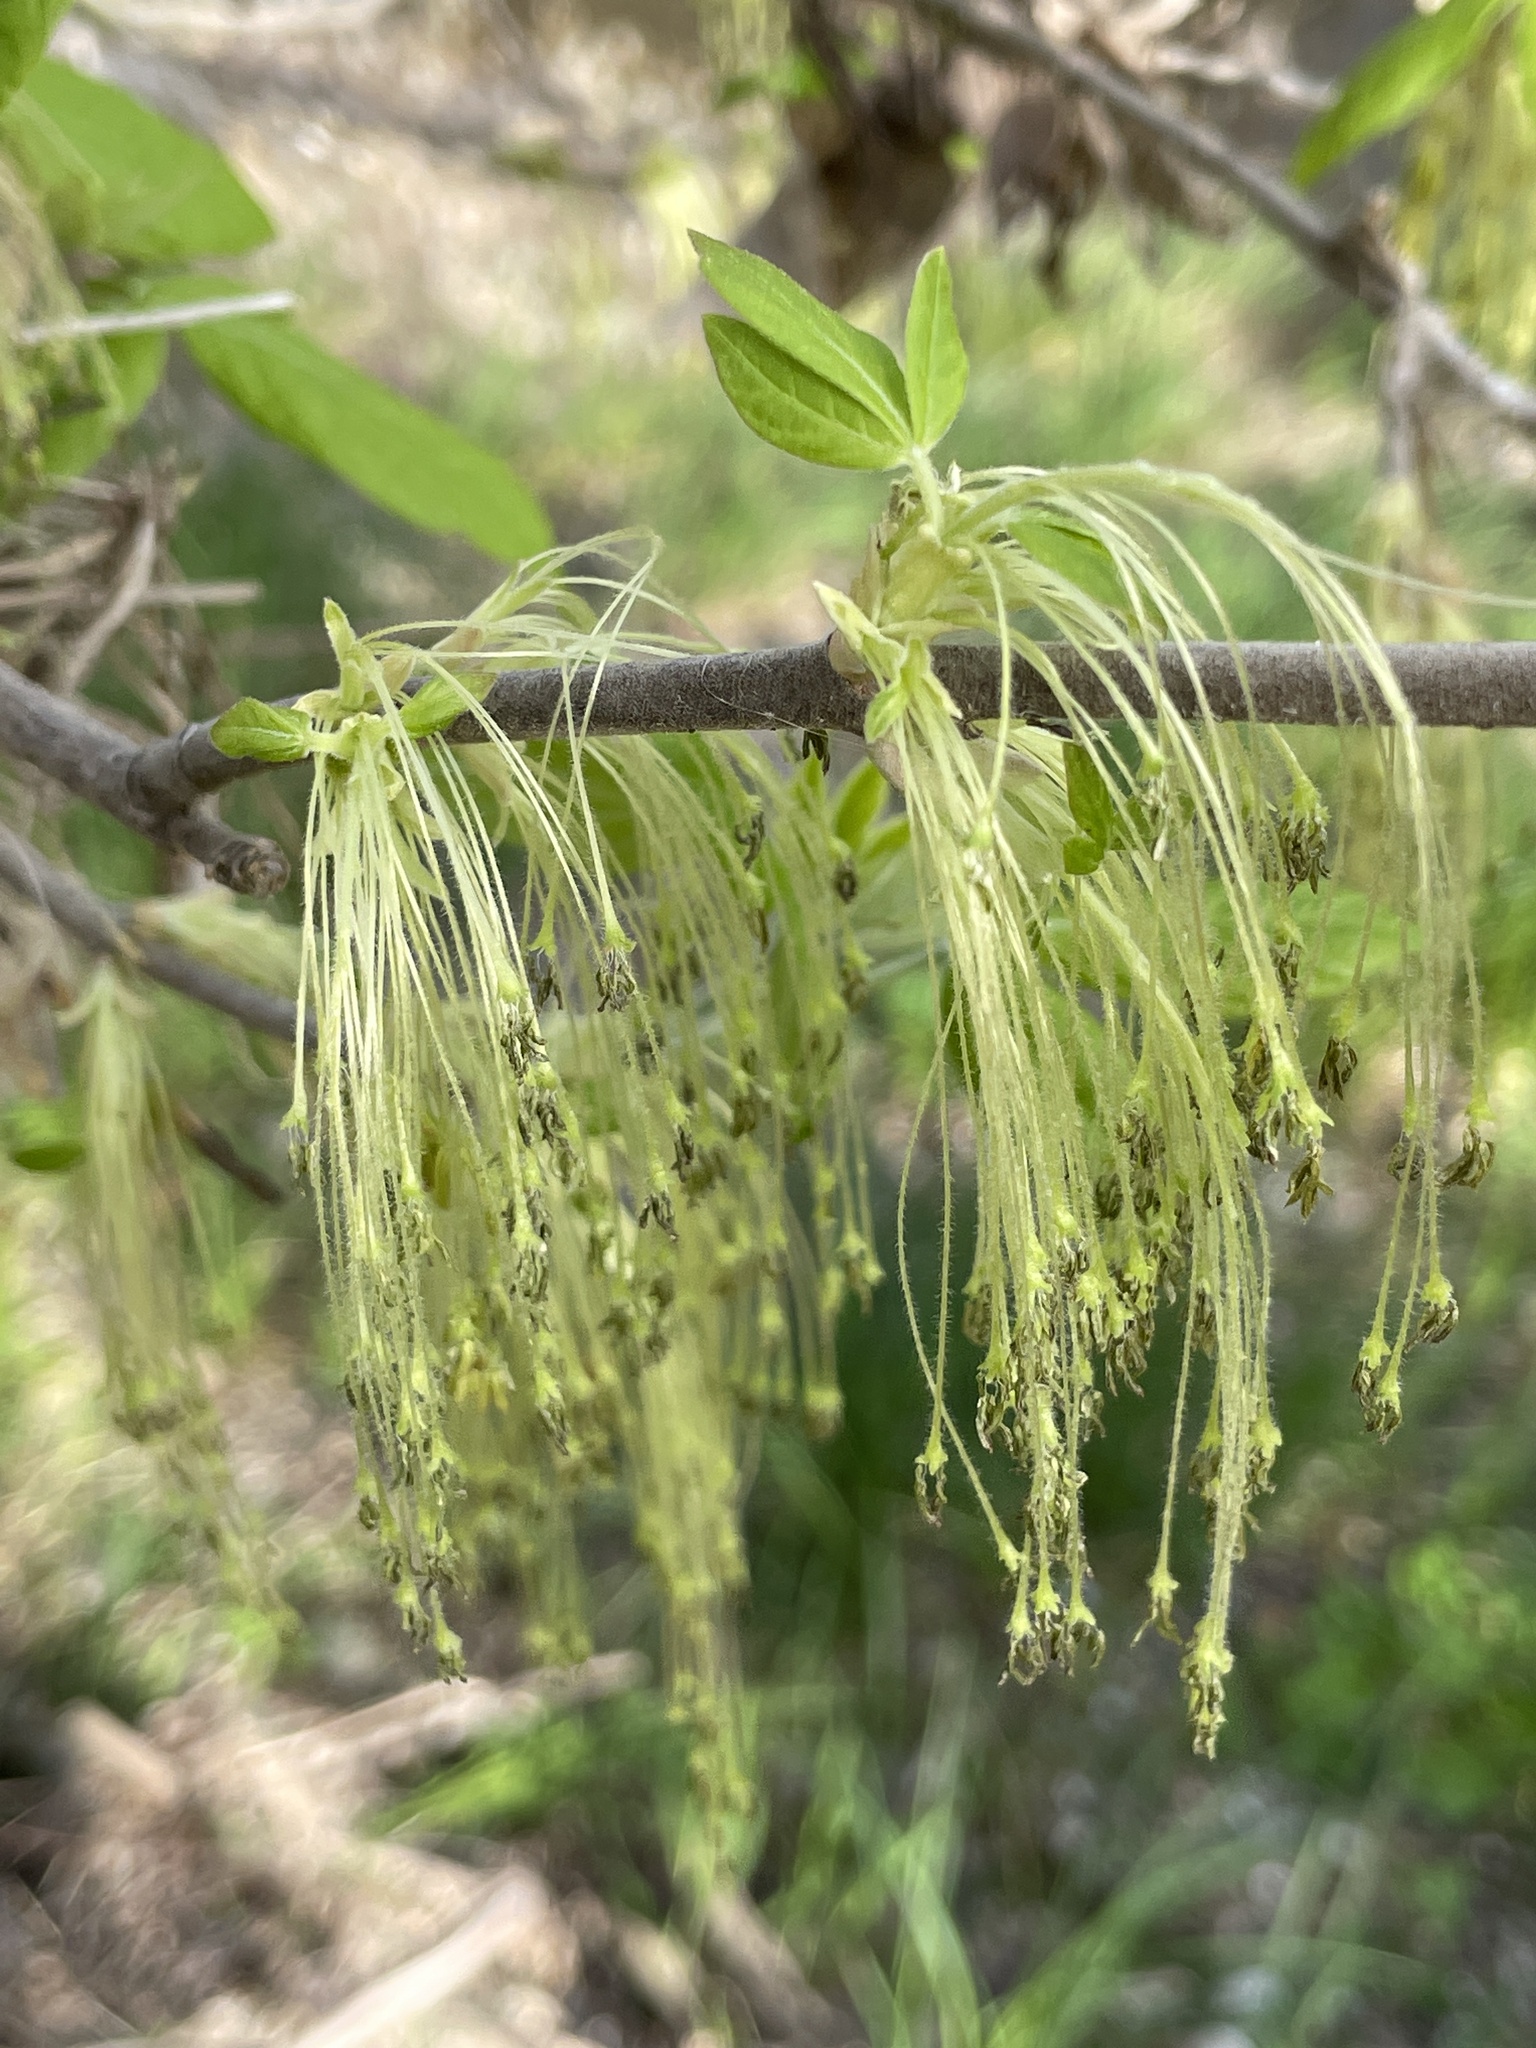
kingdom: Plantae
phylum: Tracheophyta
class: Magnoliopsida
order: Sapindales
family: Sapindaceae
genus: Acer
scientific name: Acer negundo
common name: Ashleaf maple
